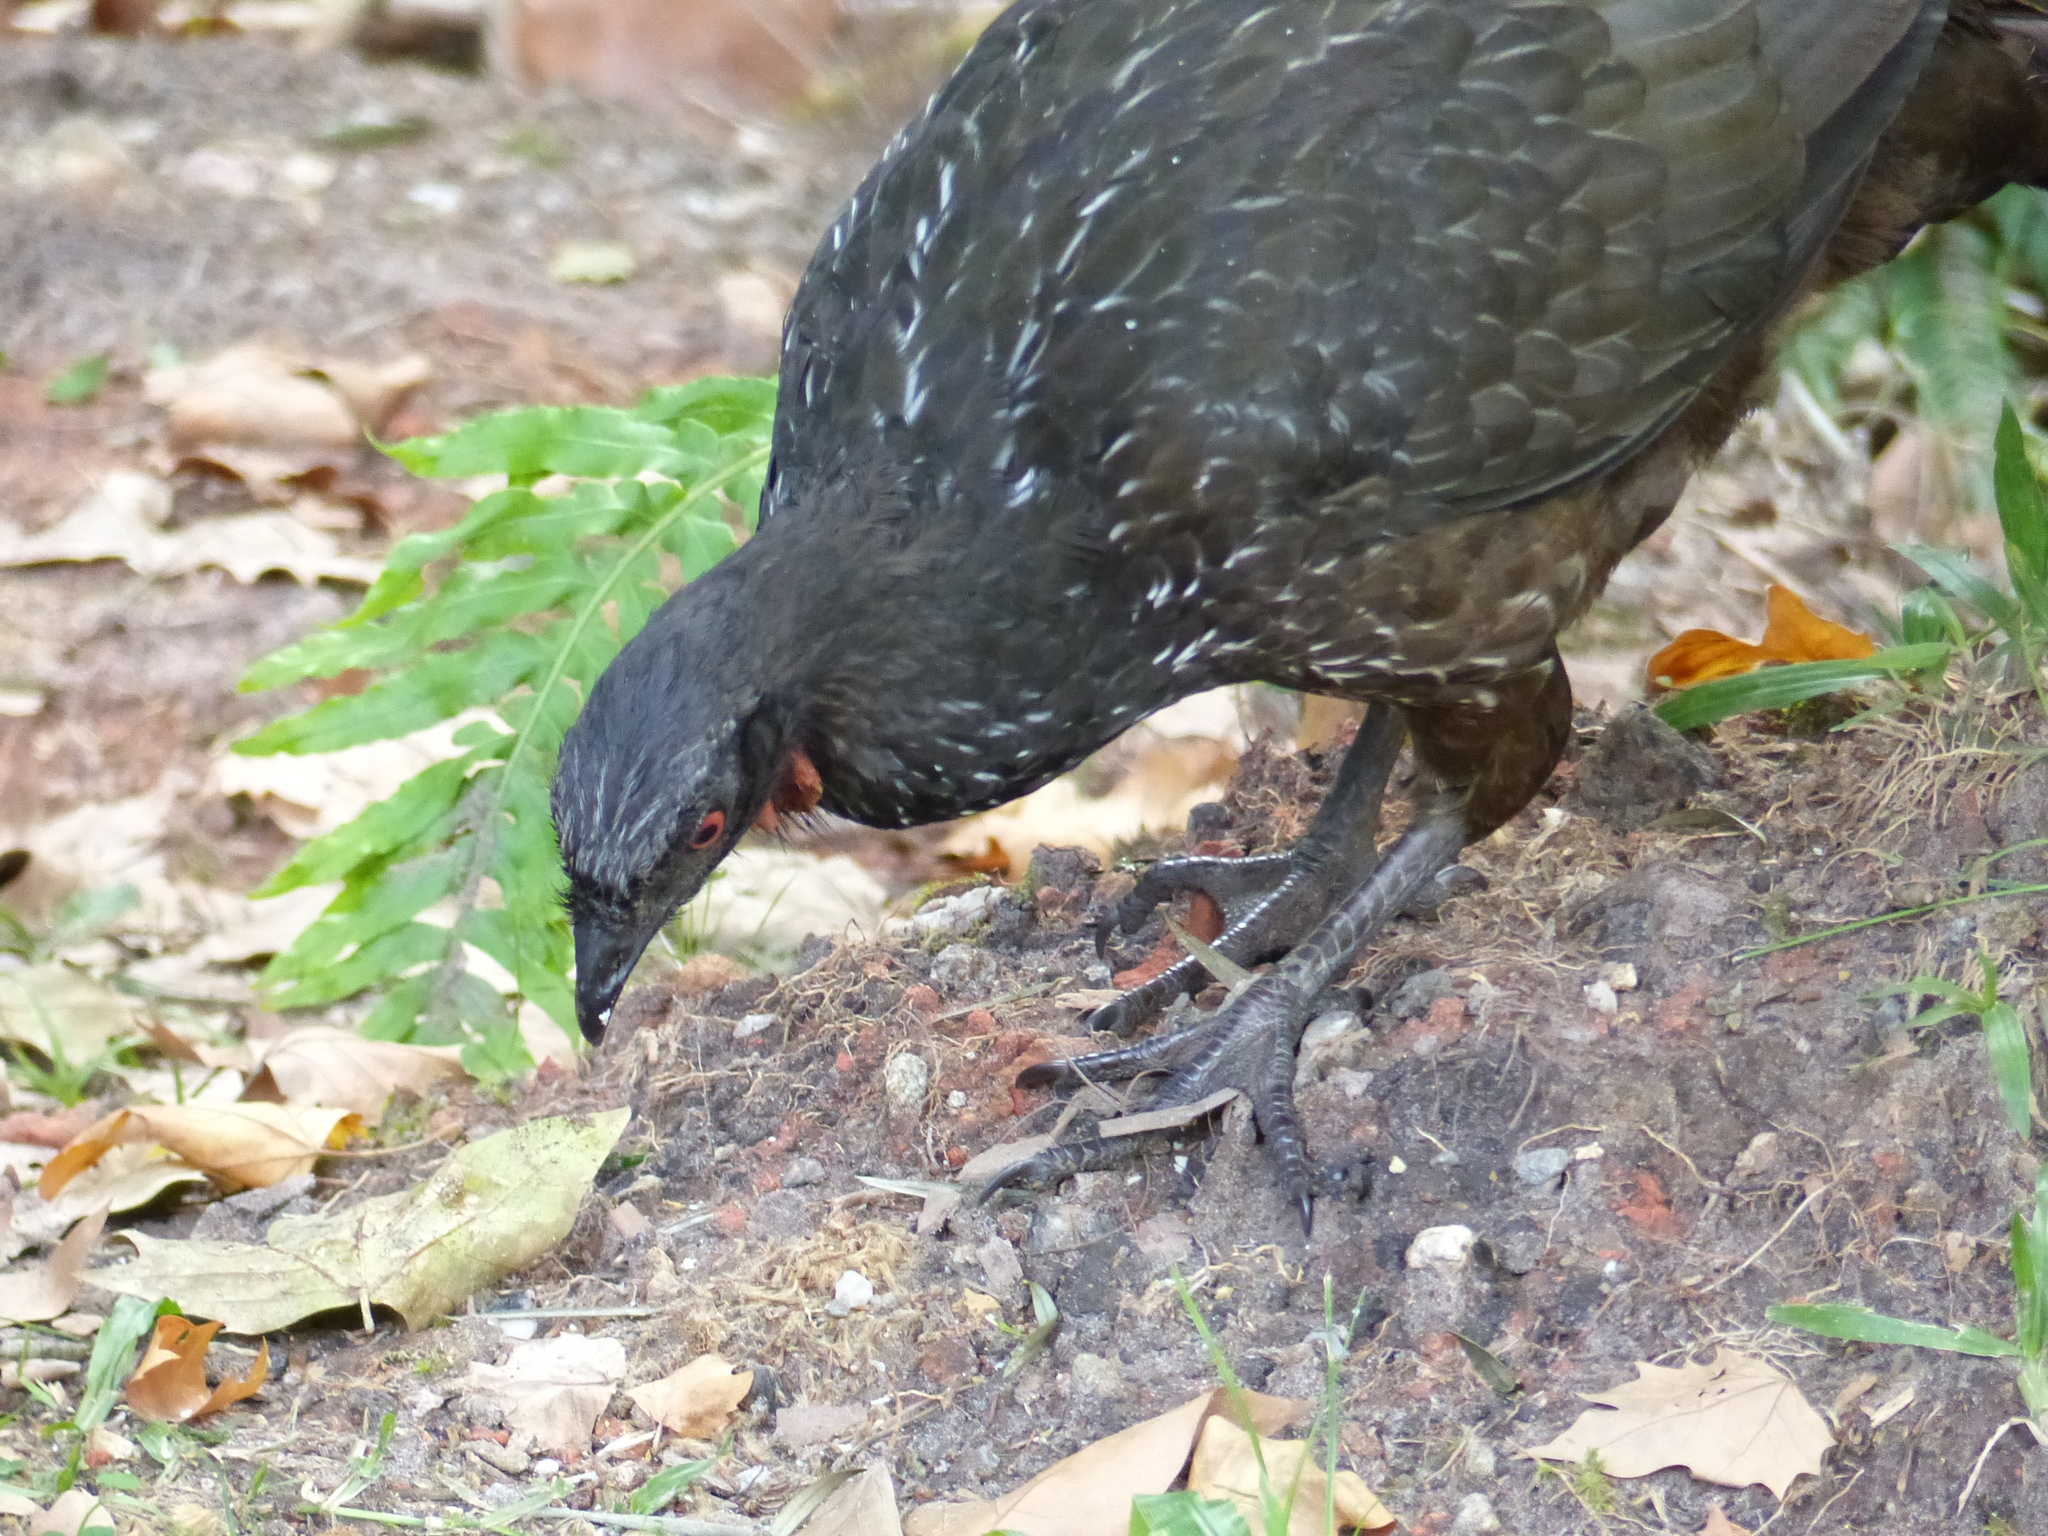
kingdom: Animalia
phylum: Chordata
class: Aves
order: Galliformes
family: Cracidae
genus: Penelope
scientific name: Penelope obscura
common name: Dusky-legged guan
